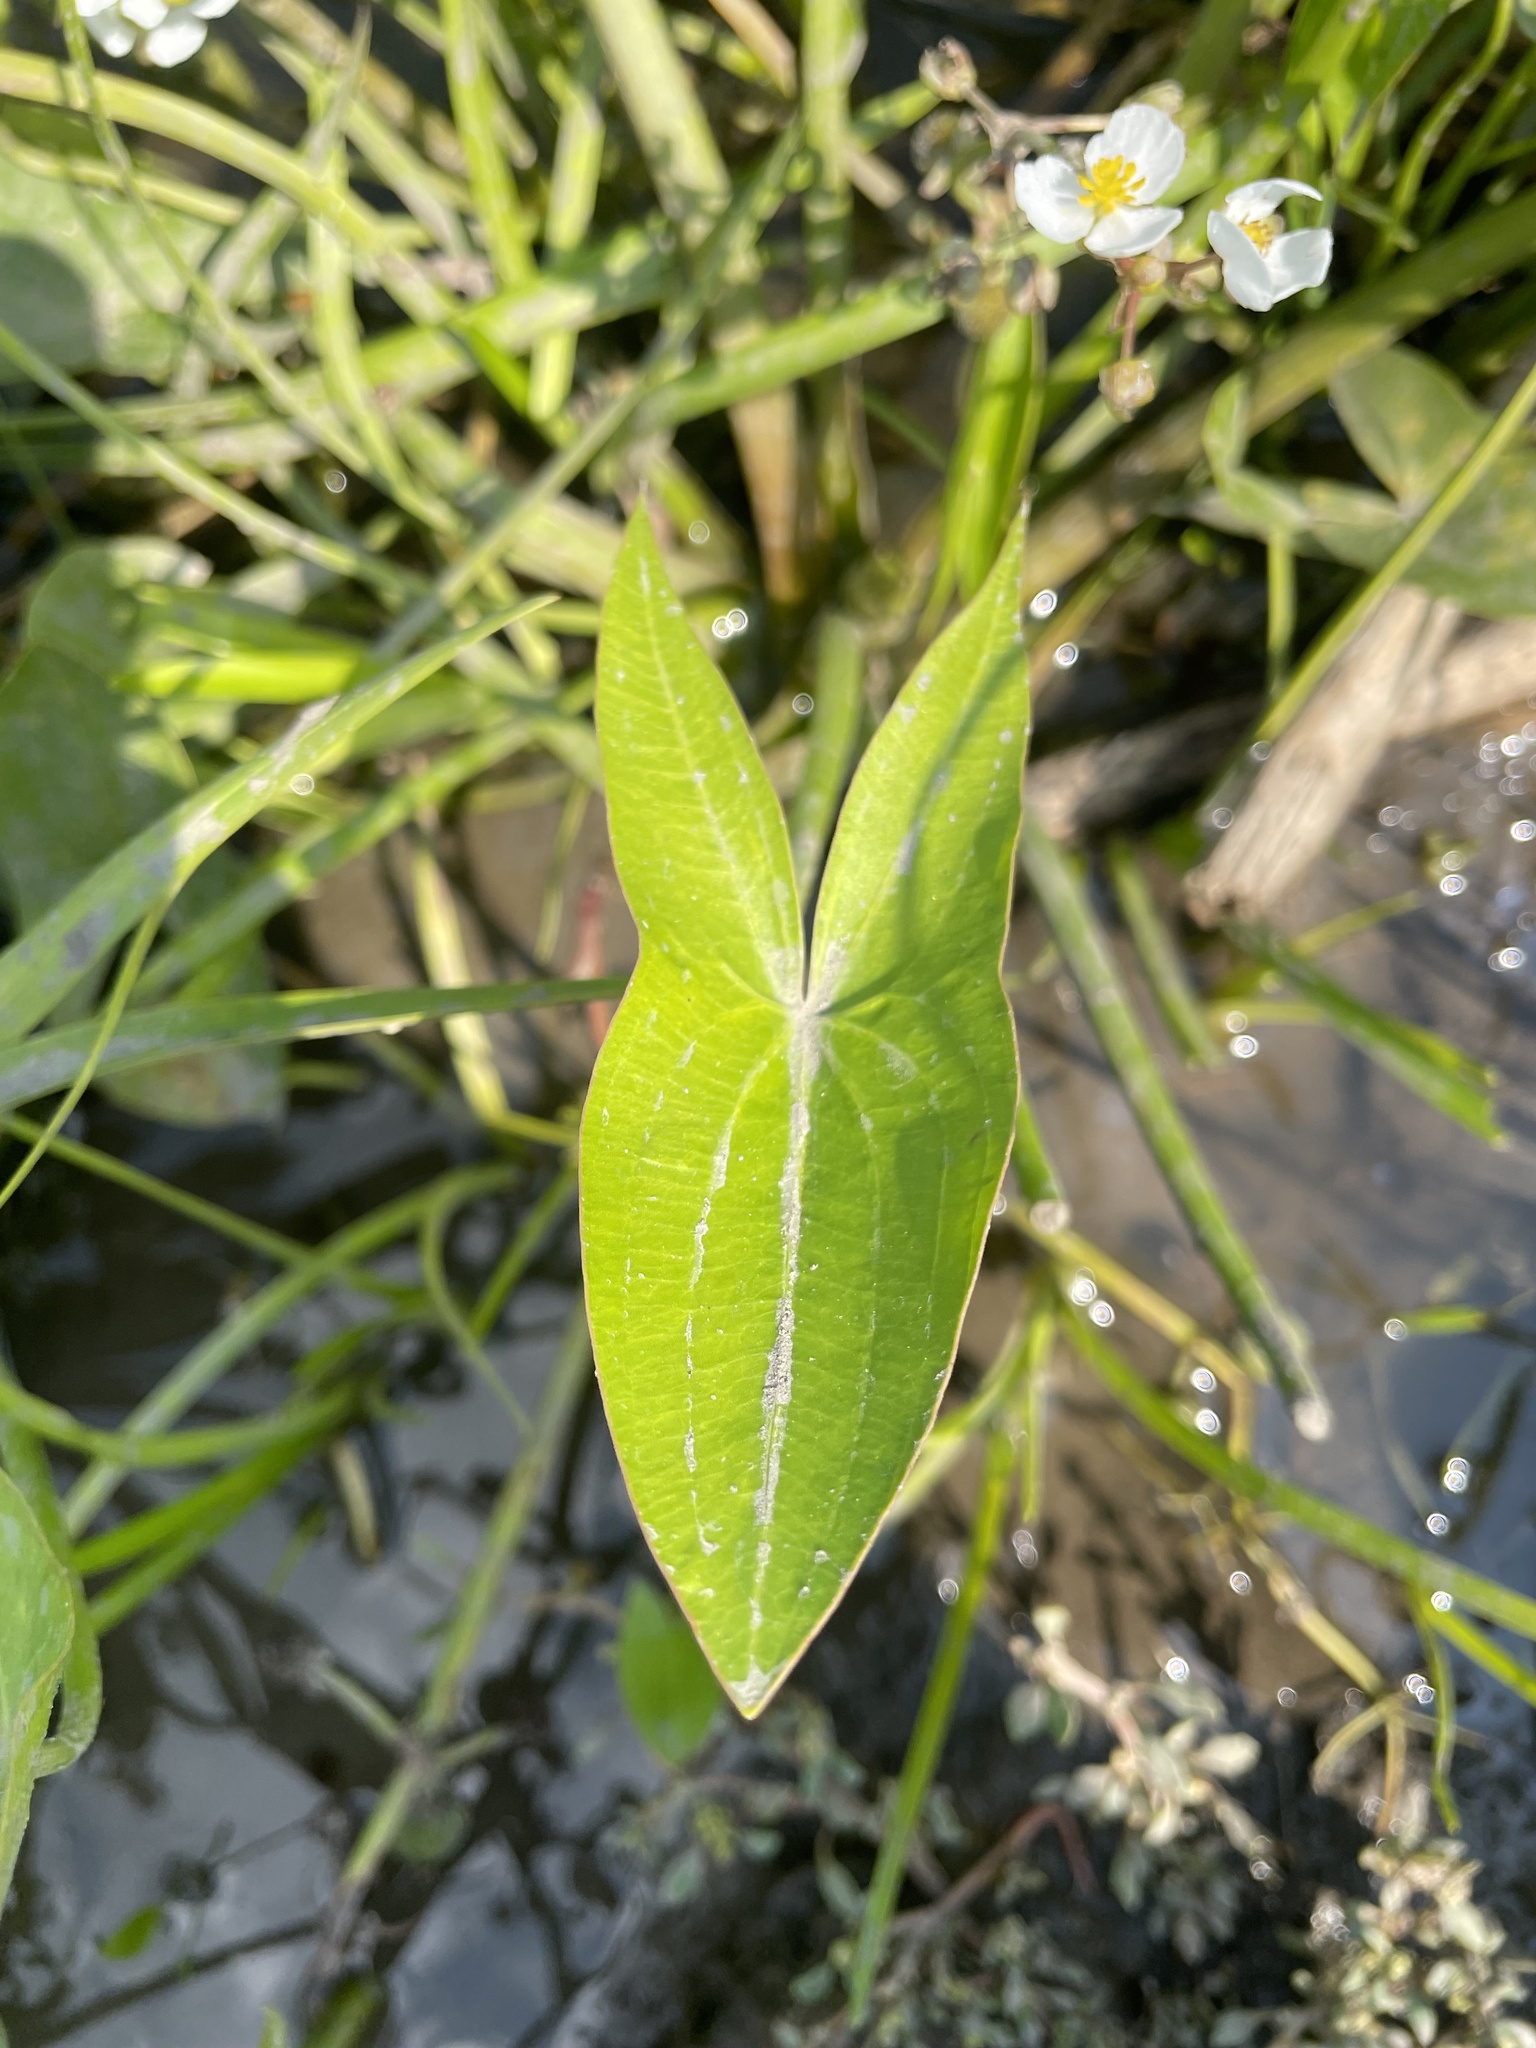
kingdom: Plantae
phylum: Tracheophyta
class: Liliopsida
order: Alismatales
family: Alismataceae
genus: Sagittaria
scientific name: Sagittaria cuneata
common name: Northern arrowhead
